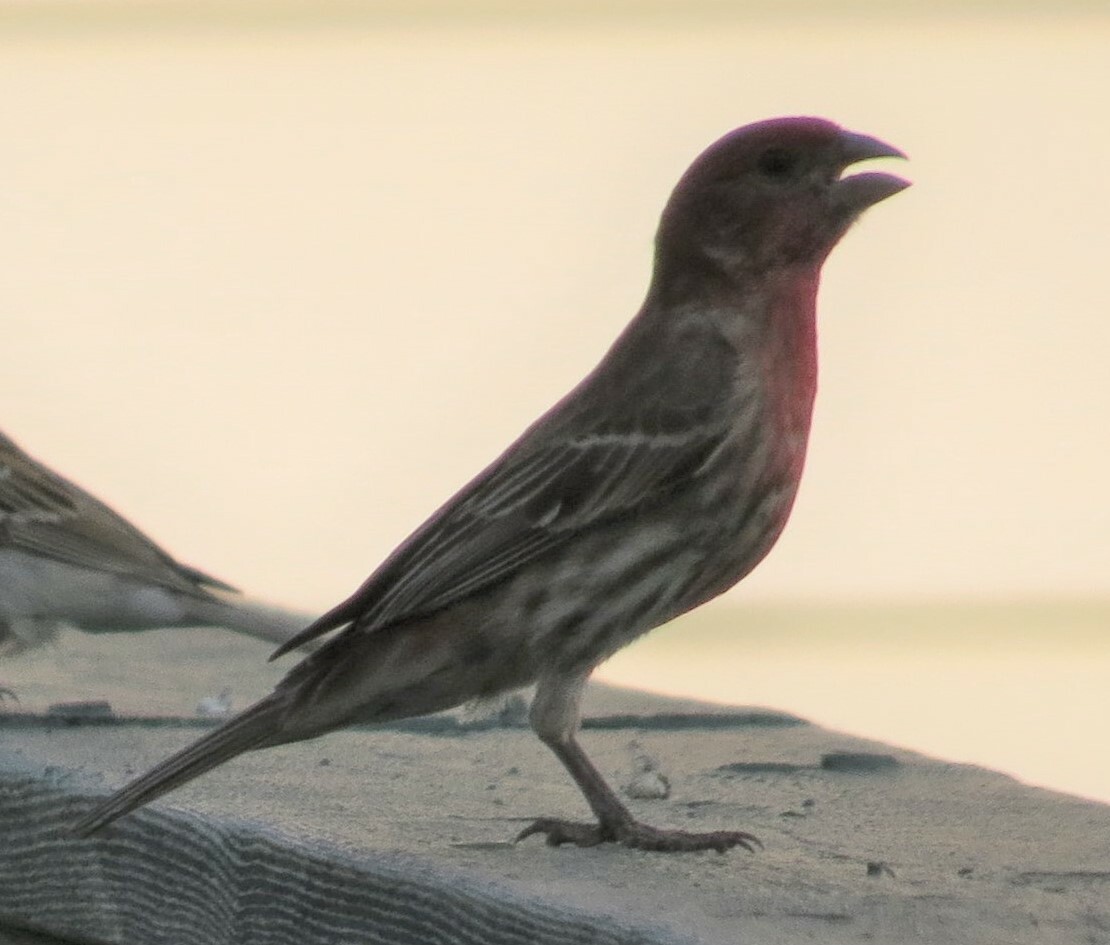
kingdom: Animalia
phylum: Chordata
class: Aves
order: Passeriformes
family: Fringillidae
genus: Haemorhous
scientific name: Haemorhous mexicanus
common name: House finch
